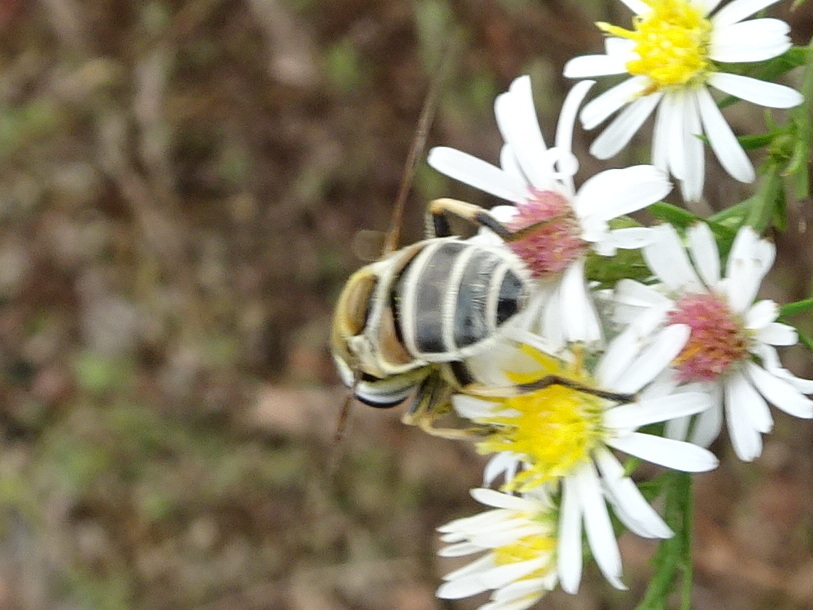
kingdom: Animalia
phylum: Arthropoda
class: Insecta
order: Diptera
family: Syrphidae
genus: Eristalis
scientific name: Eristalis stipator
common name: Yellow-shouldered drone fly
